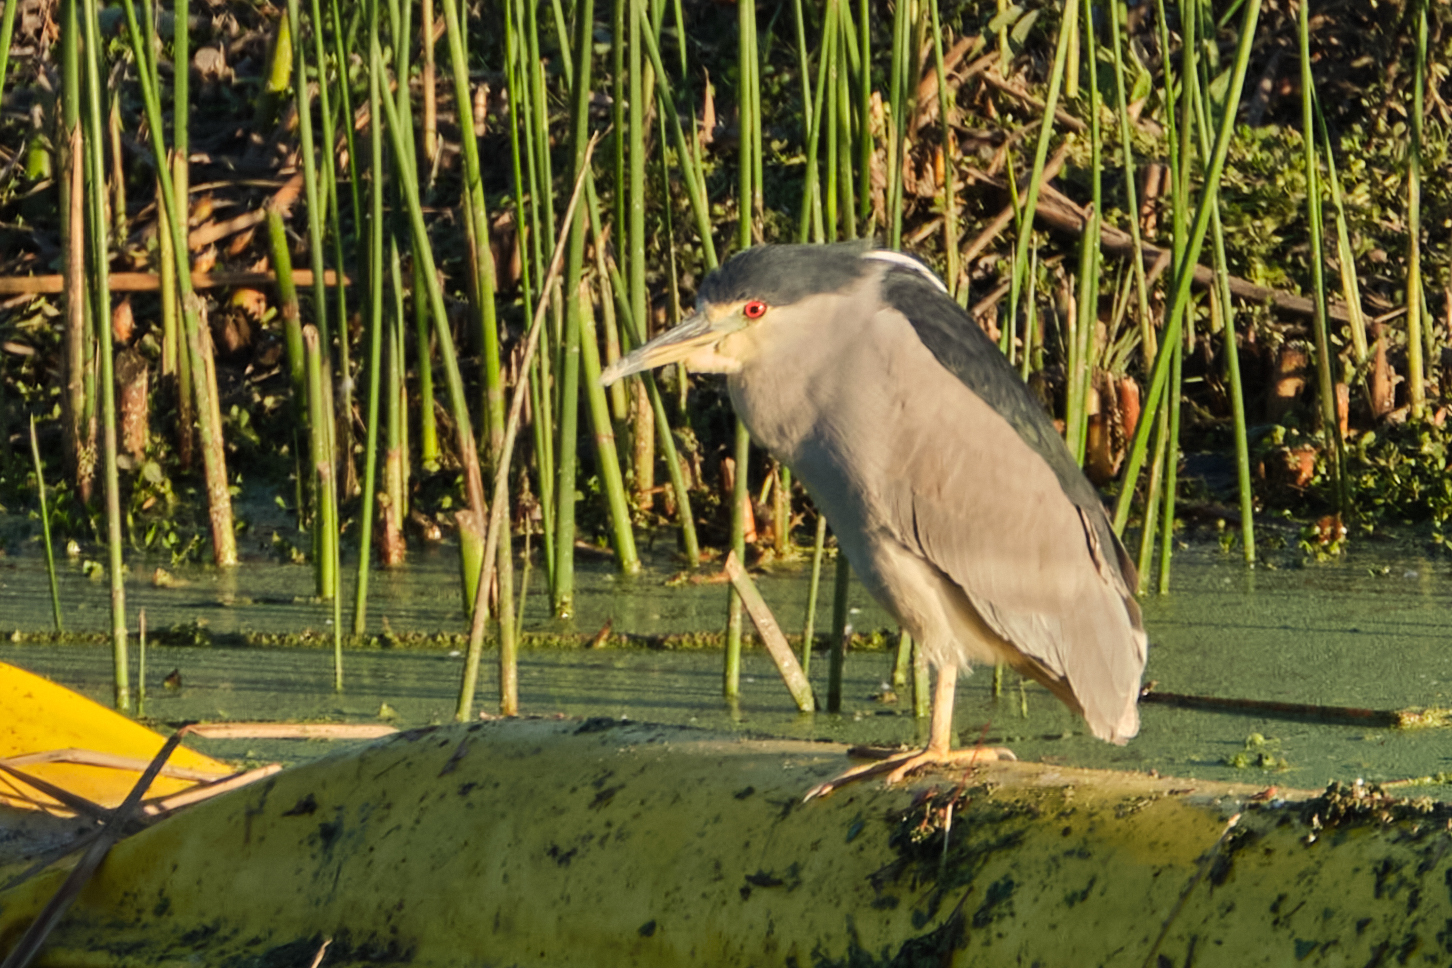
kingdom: Animalia
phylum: Chordata
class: Aves
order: Pelecaniformes
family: Ardeidae
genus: Nycticorax
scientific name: Nycticorax nycticorax
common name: Black-crowned night heron
